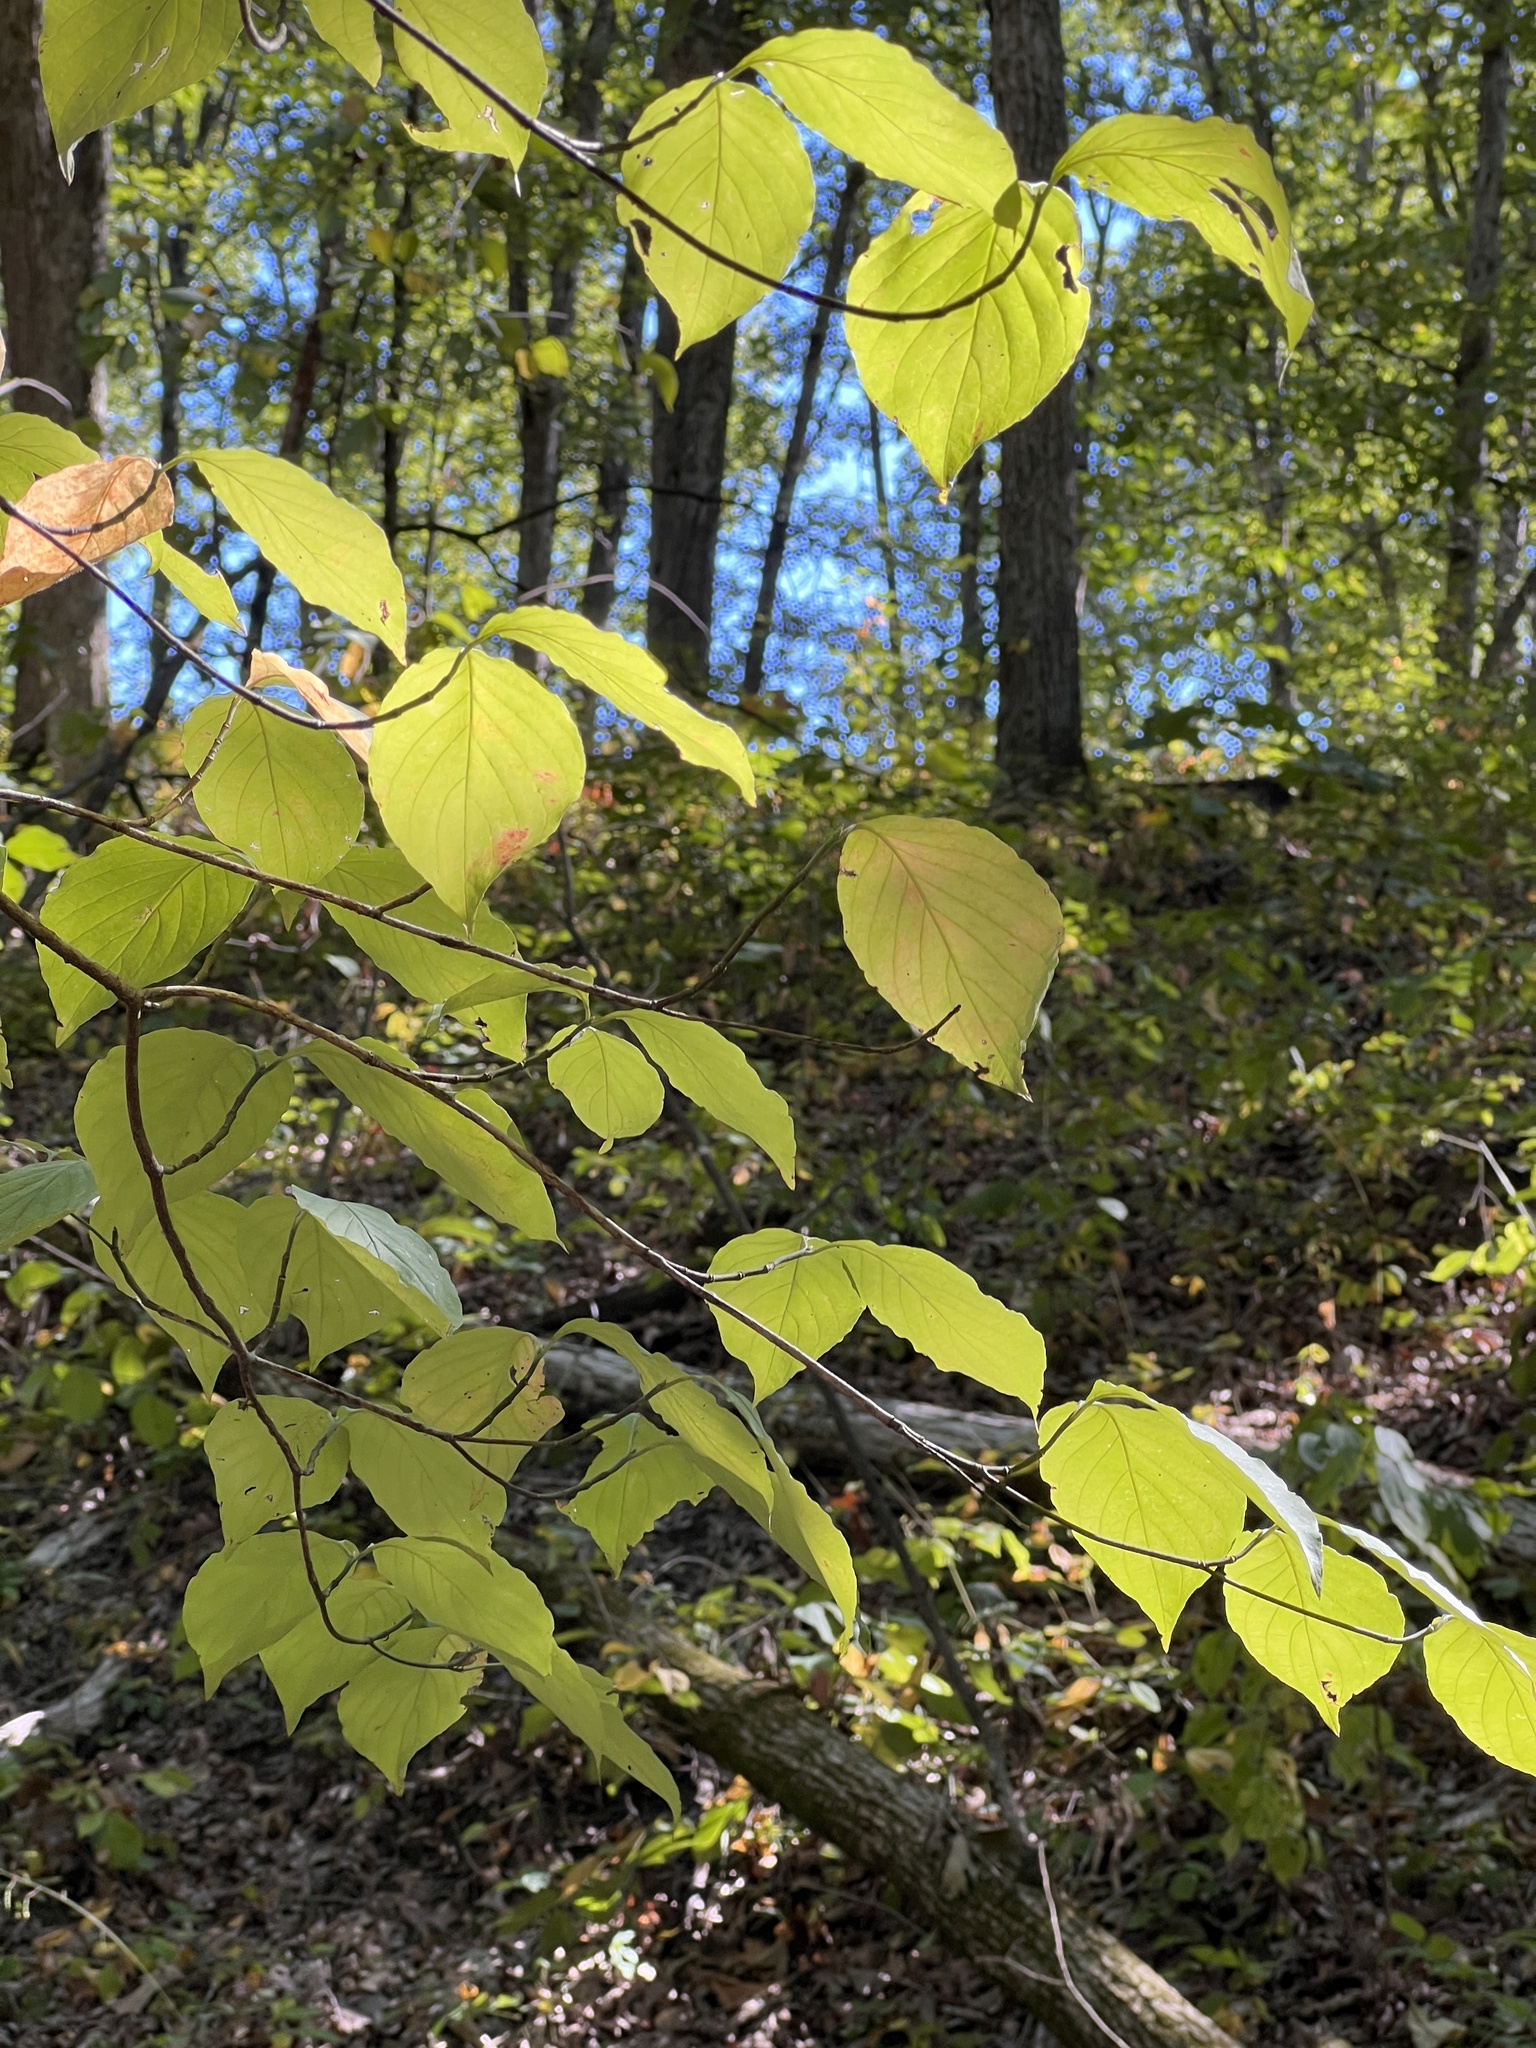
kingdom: Plantae
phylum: Tracheophyta
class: Magnoliopsida
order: Cornales
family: Cornaceae
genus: Cornus
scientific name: Cornus florida
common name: Flowering dogwood
